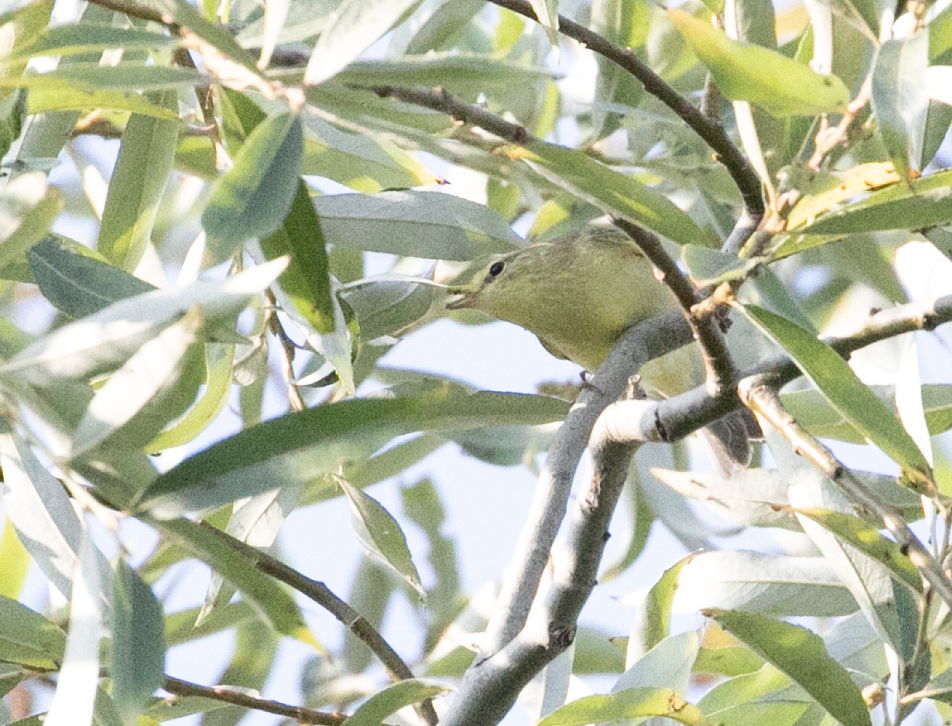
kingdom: Animalia
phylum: Chordata
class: Aves
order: Passeriformes
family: Phylloscopidae
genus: Phylloscopus
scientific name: Phylloscopus trochilus
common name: Willow warbler
